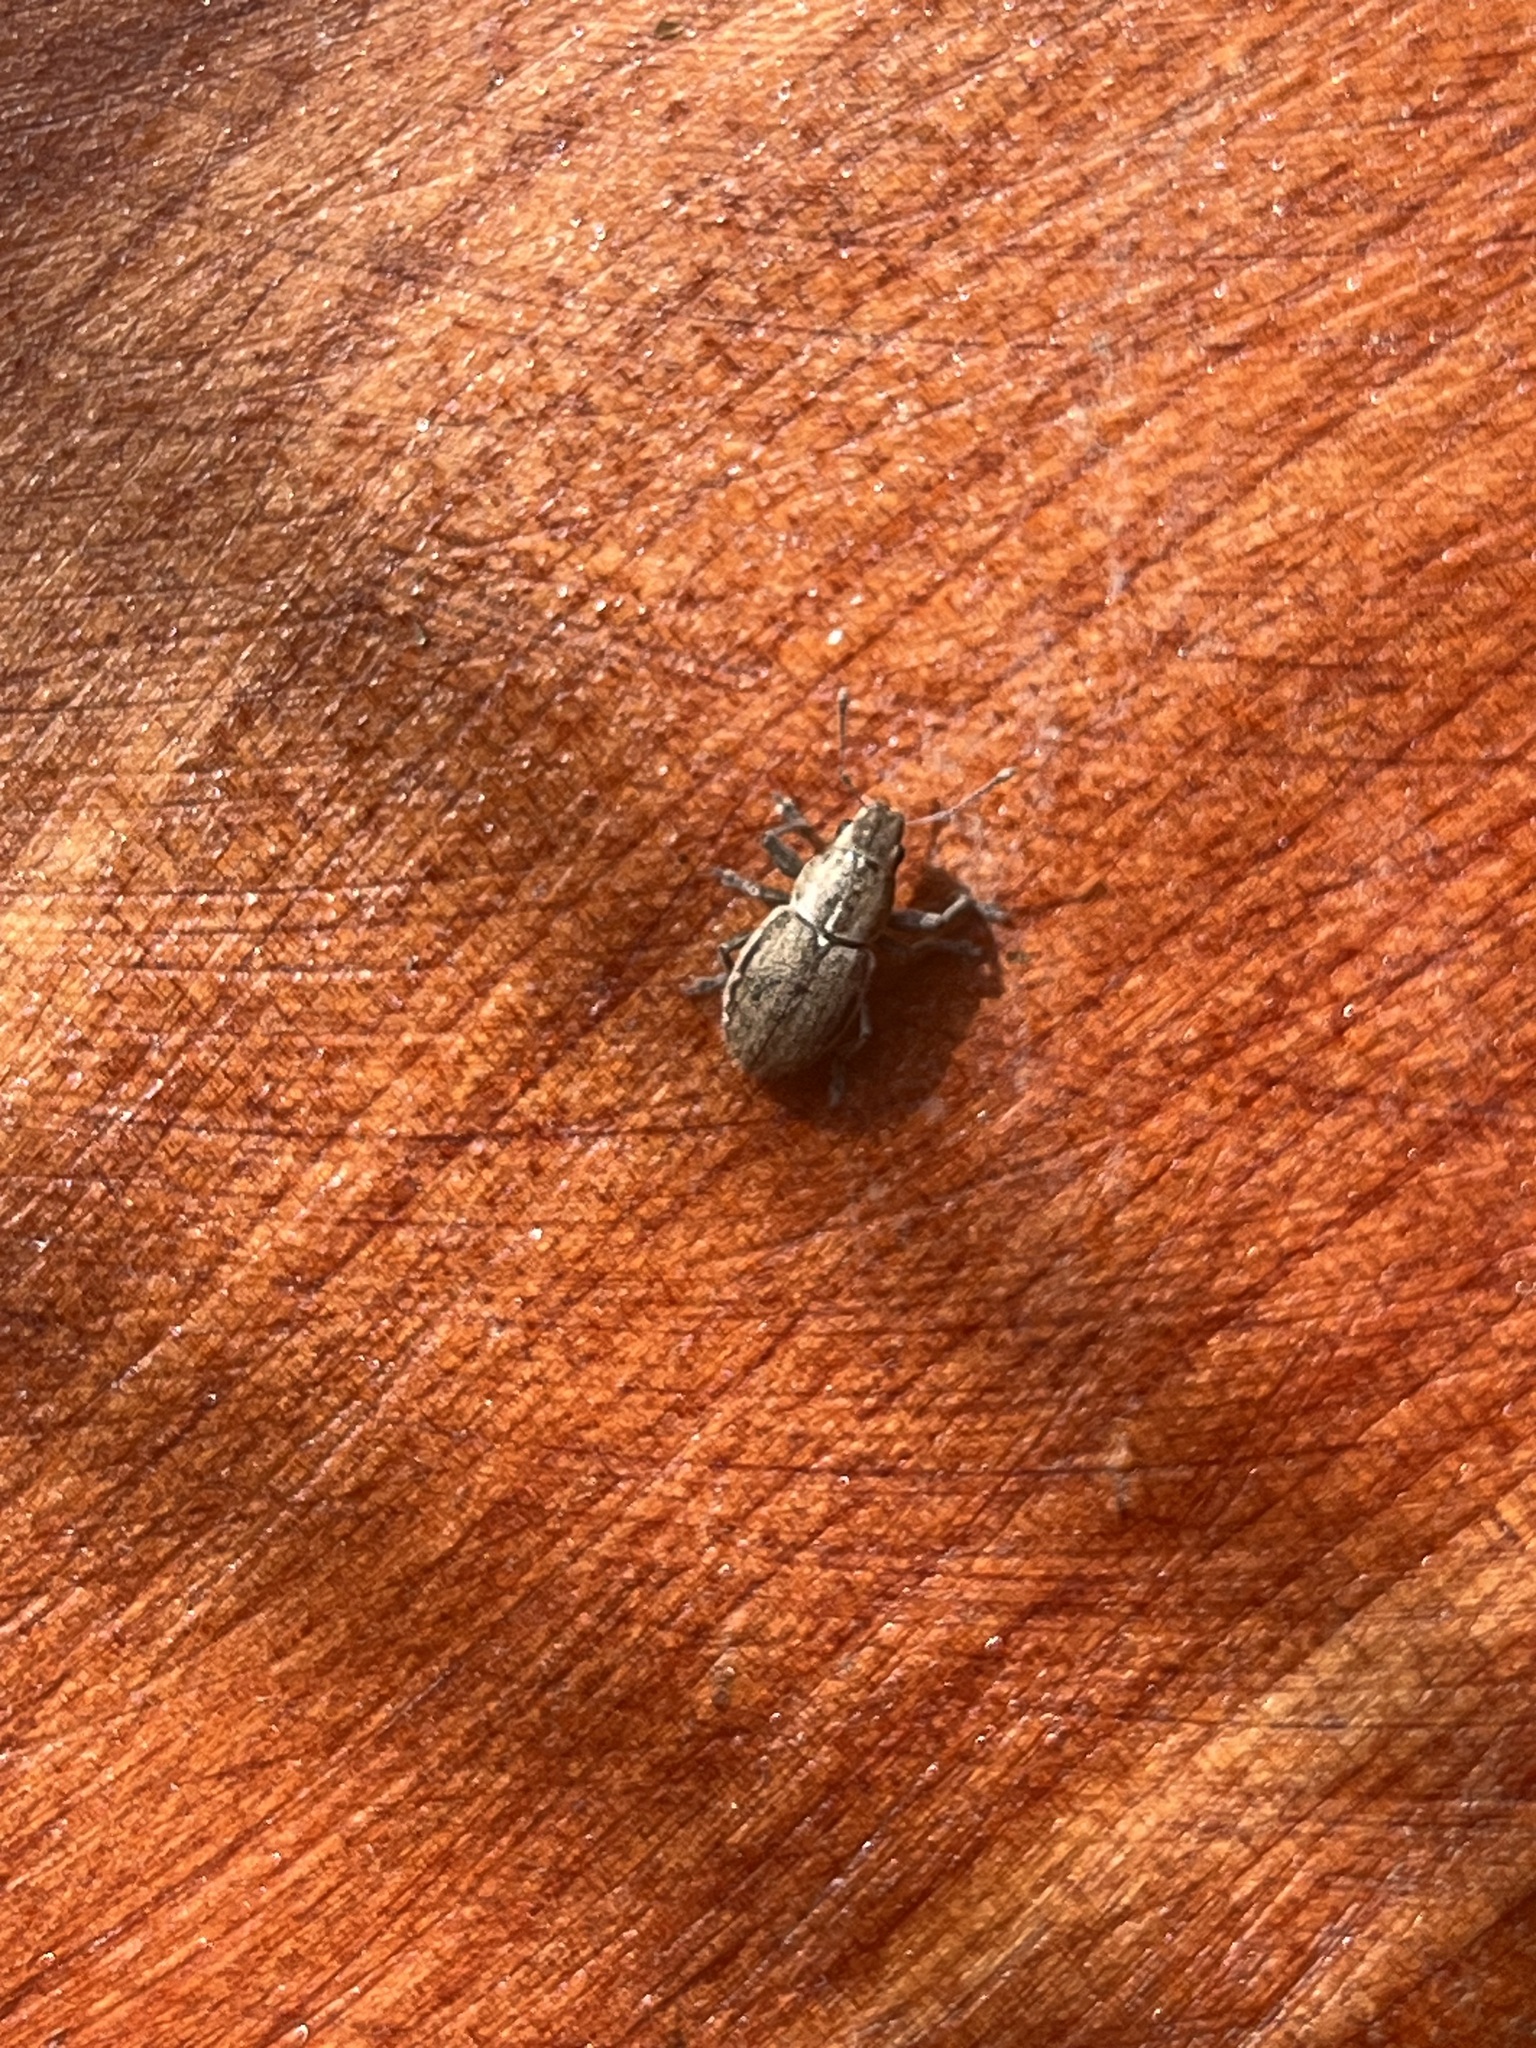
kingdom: Animalia
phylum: Arthropoda
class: Insecta
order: Coleoptera
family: Curculionidae
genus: Naupactus
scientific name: Naupactus peregrinus
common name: Whitefringed beetle
